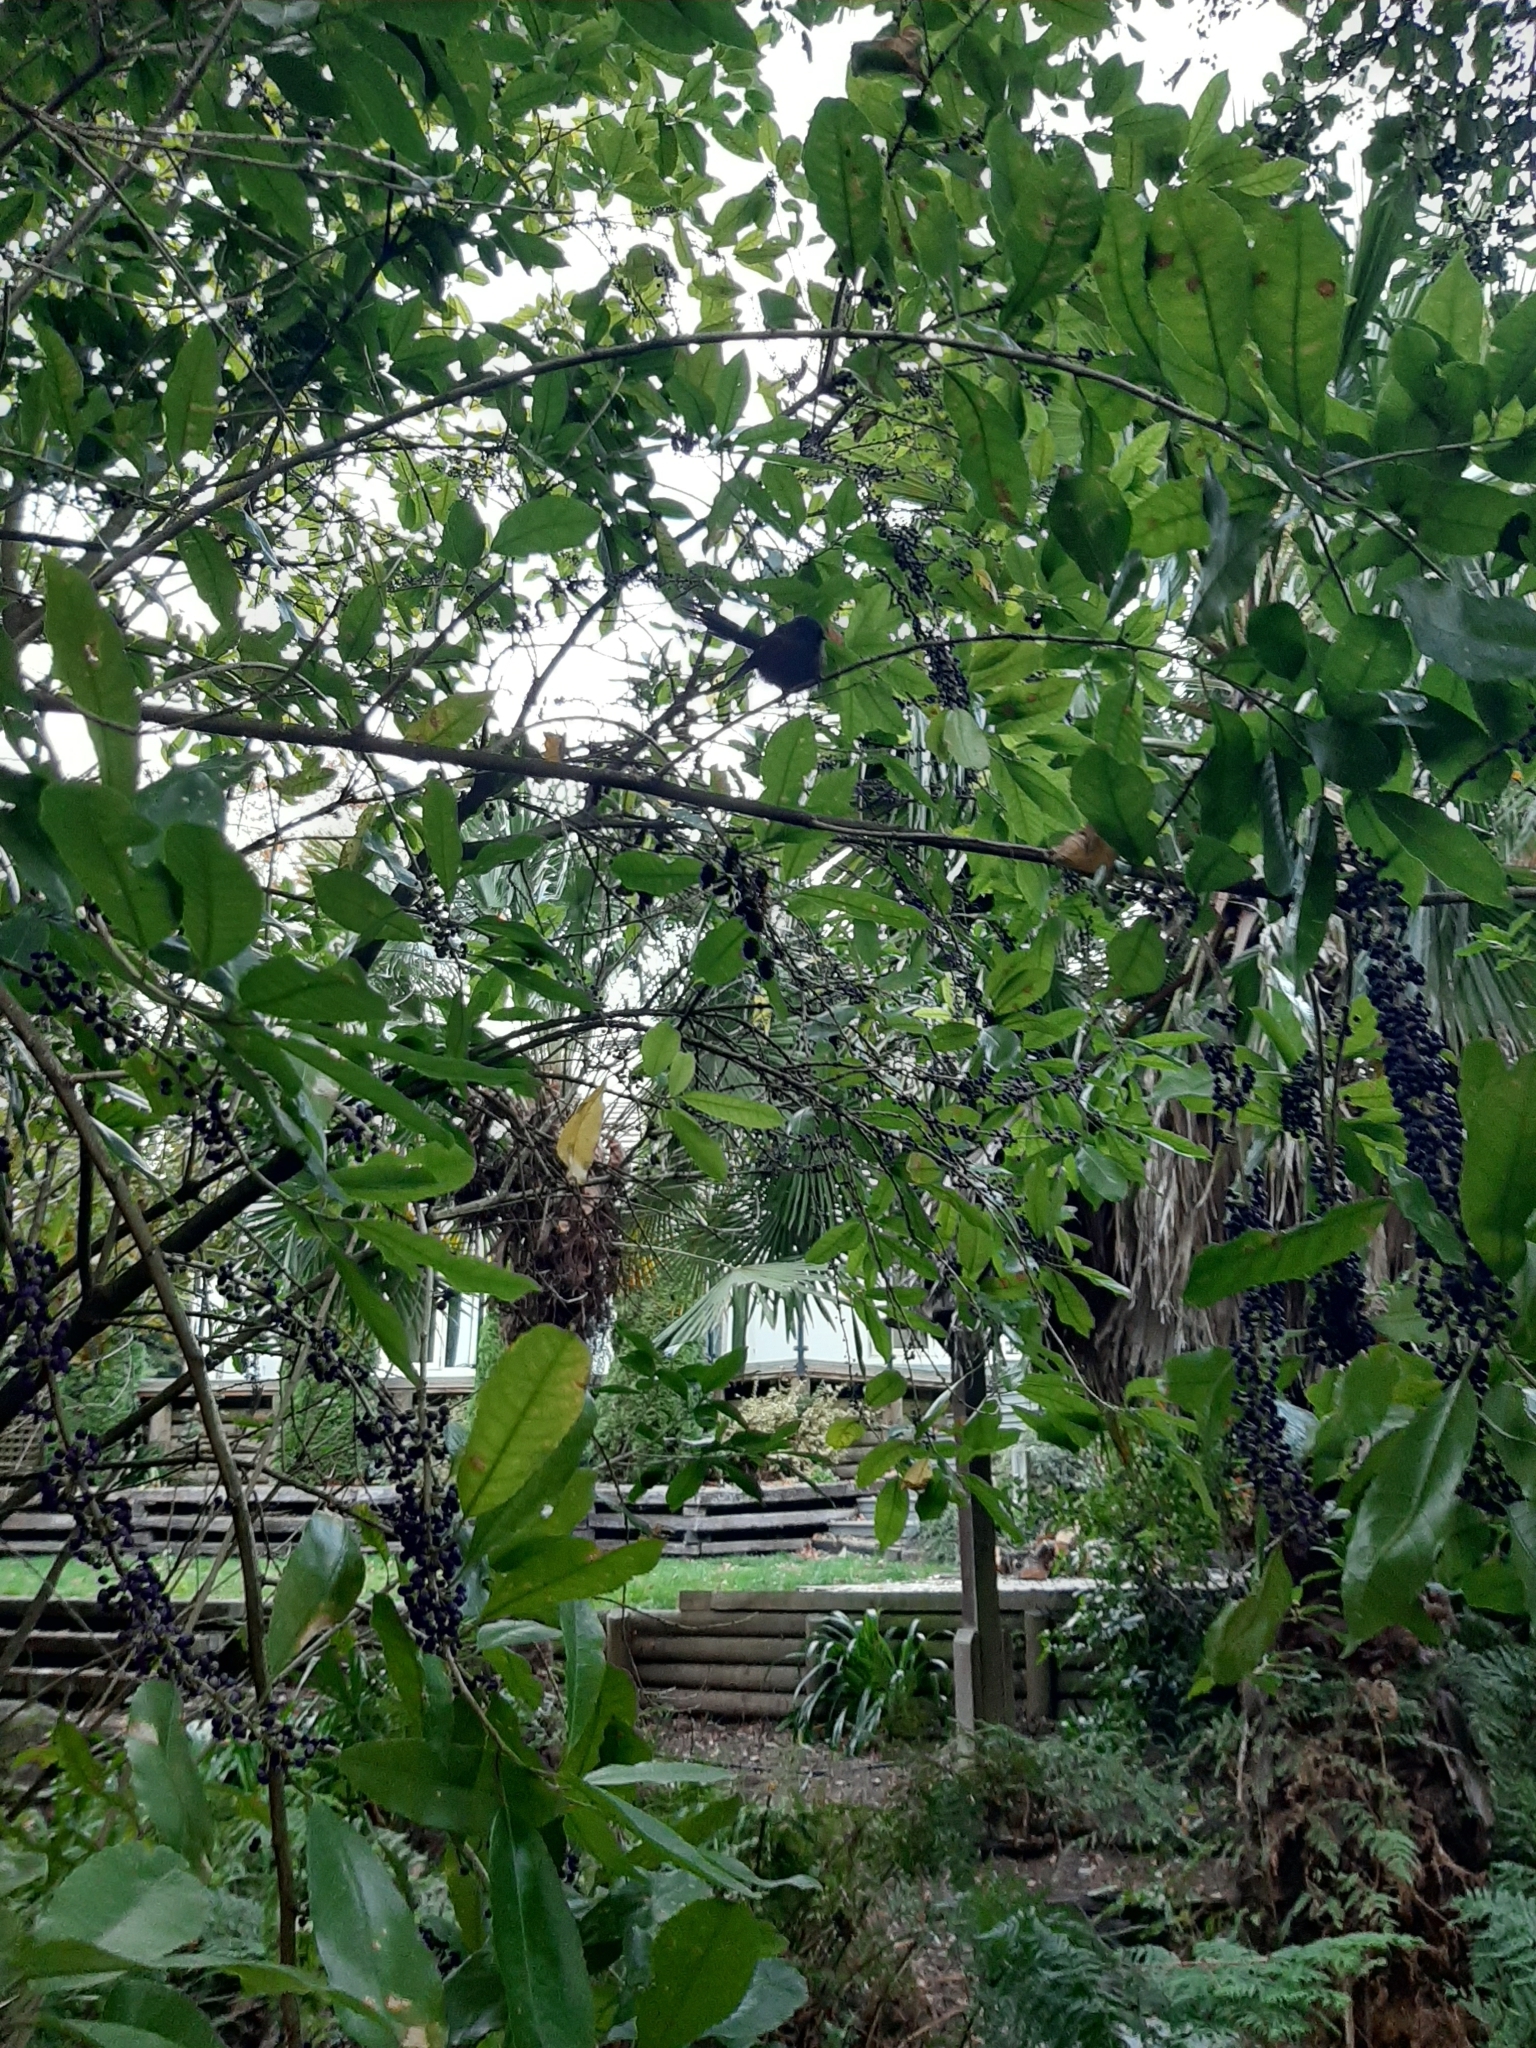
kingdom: Animalia
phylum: Chordata
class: Aves
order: Passeriformes
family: Rhipiduridae
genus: Rhipidura
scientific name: Rhipidura fuliginosa
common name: New zealand fantail
